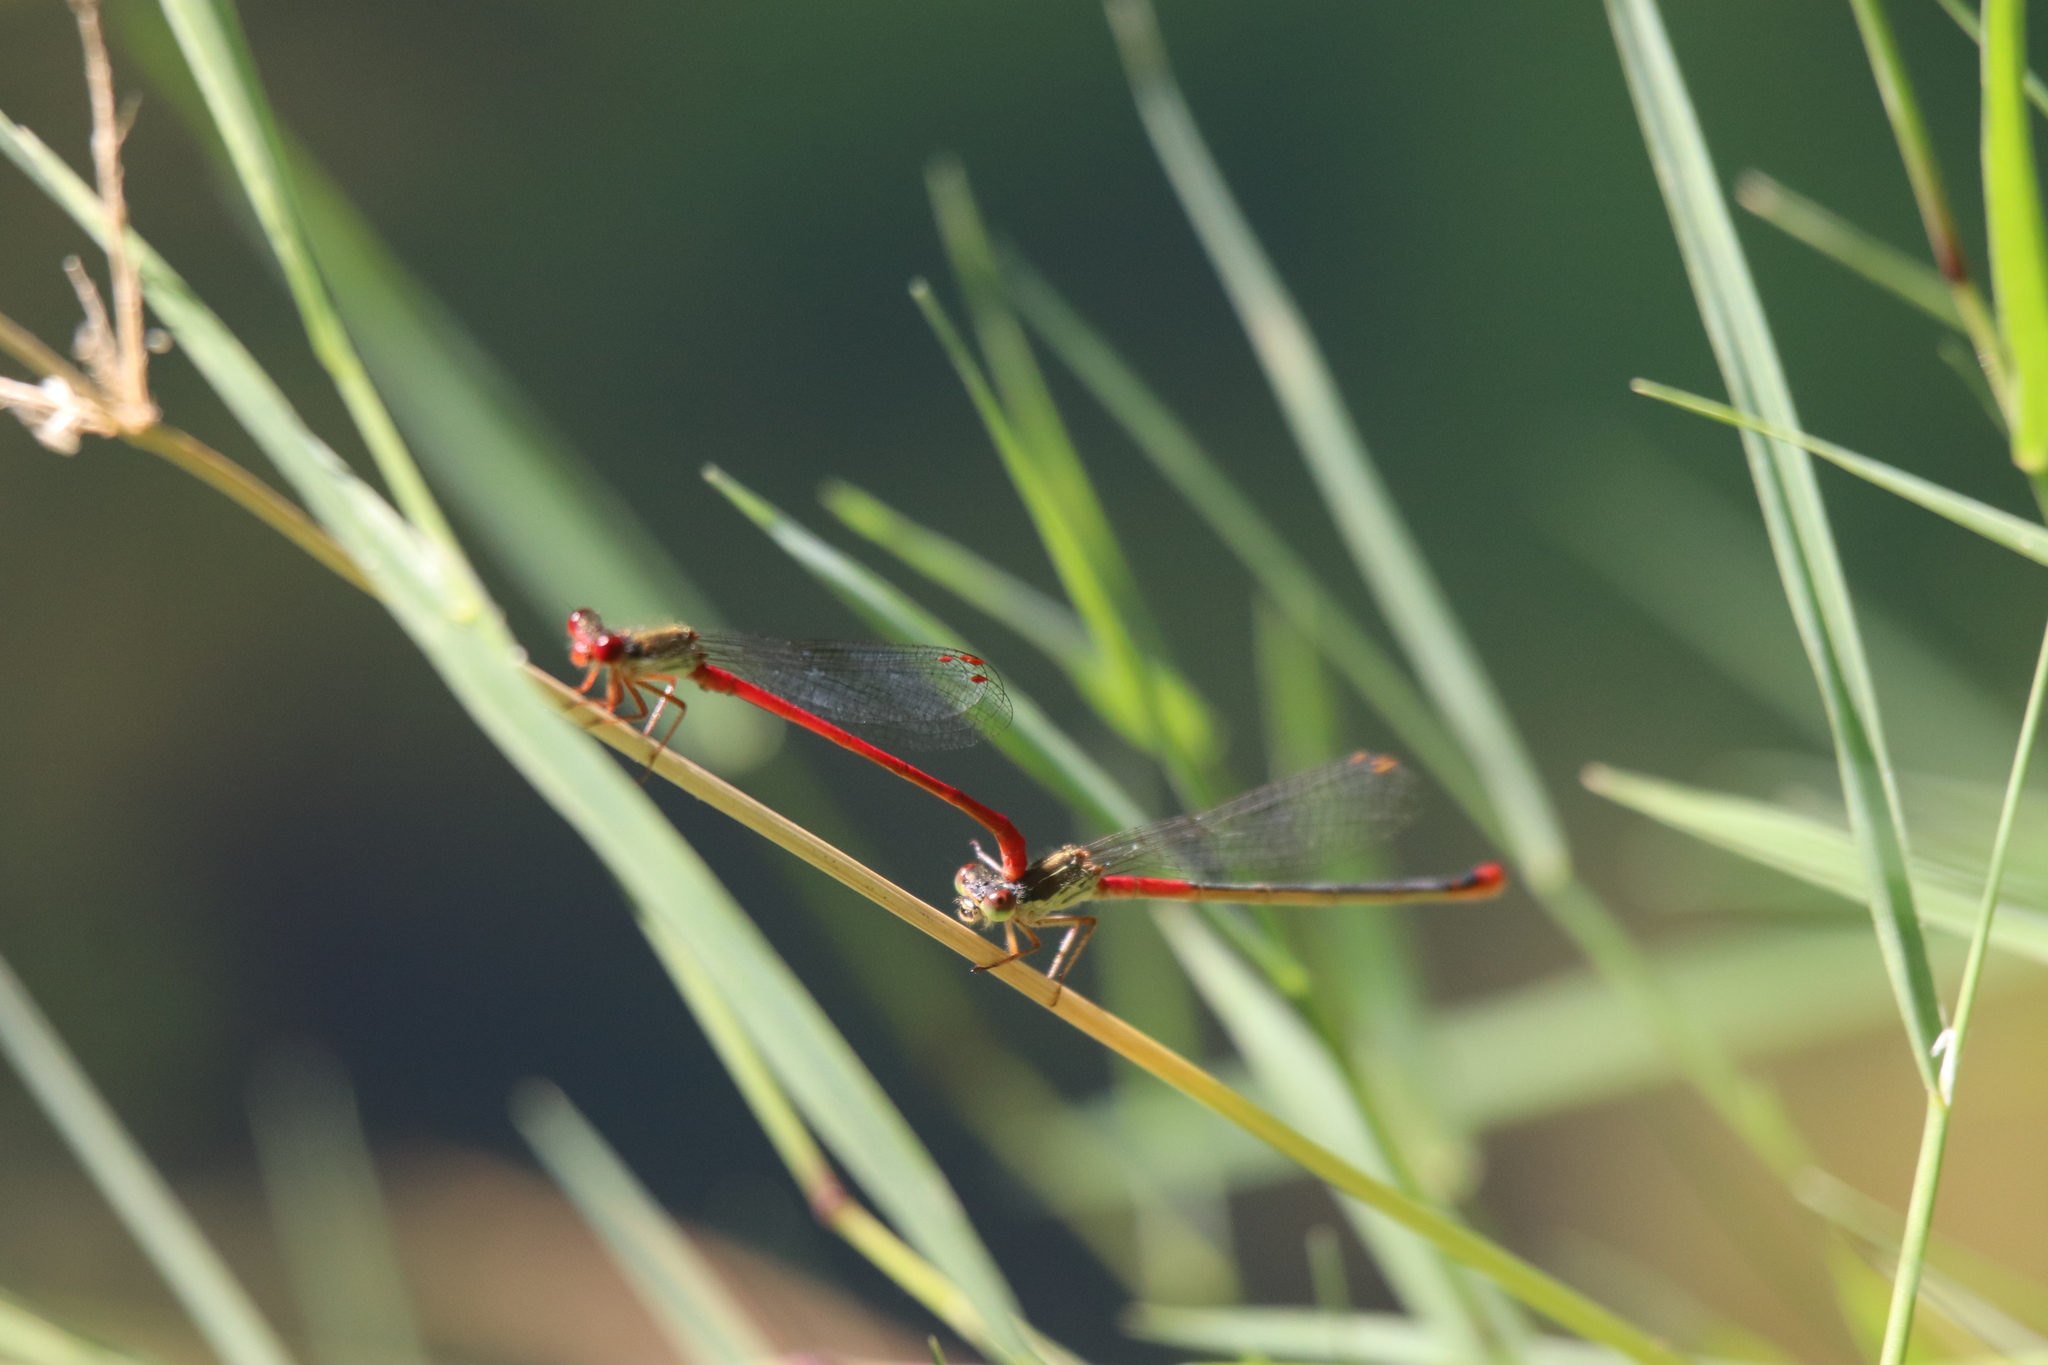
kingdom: Animalia
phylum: Arthropoda
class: Insecta
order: Odonata
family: Coenagrionidae
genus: Ceriagrion
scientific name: Ceriagrion tenellum
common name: Small red damselfly
